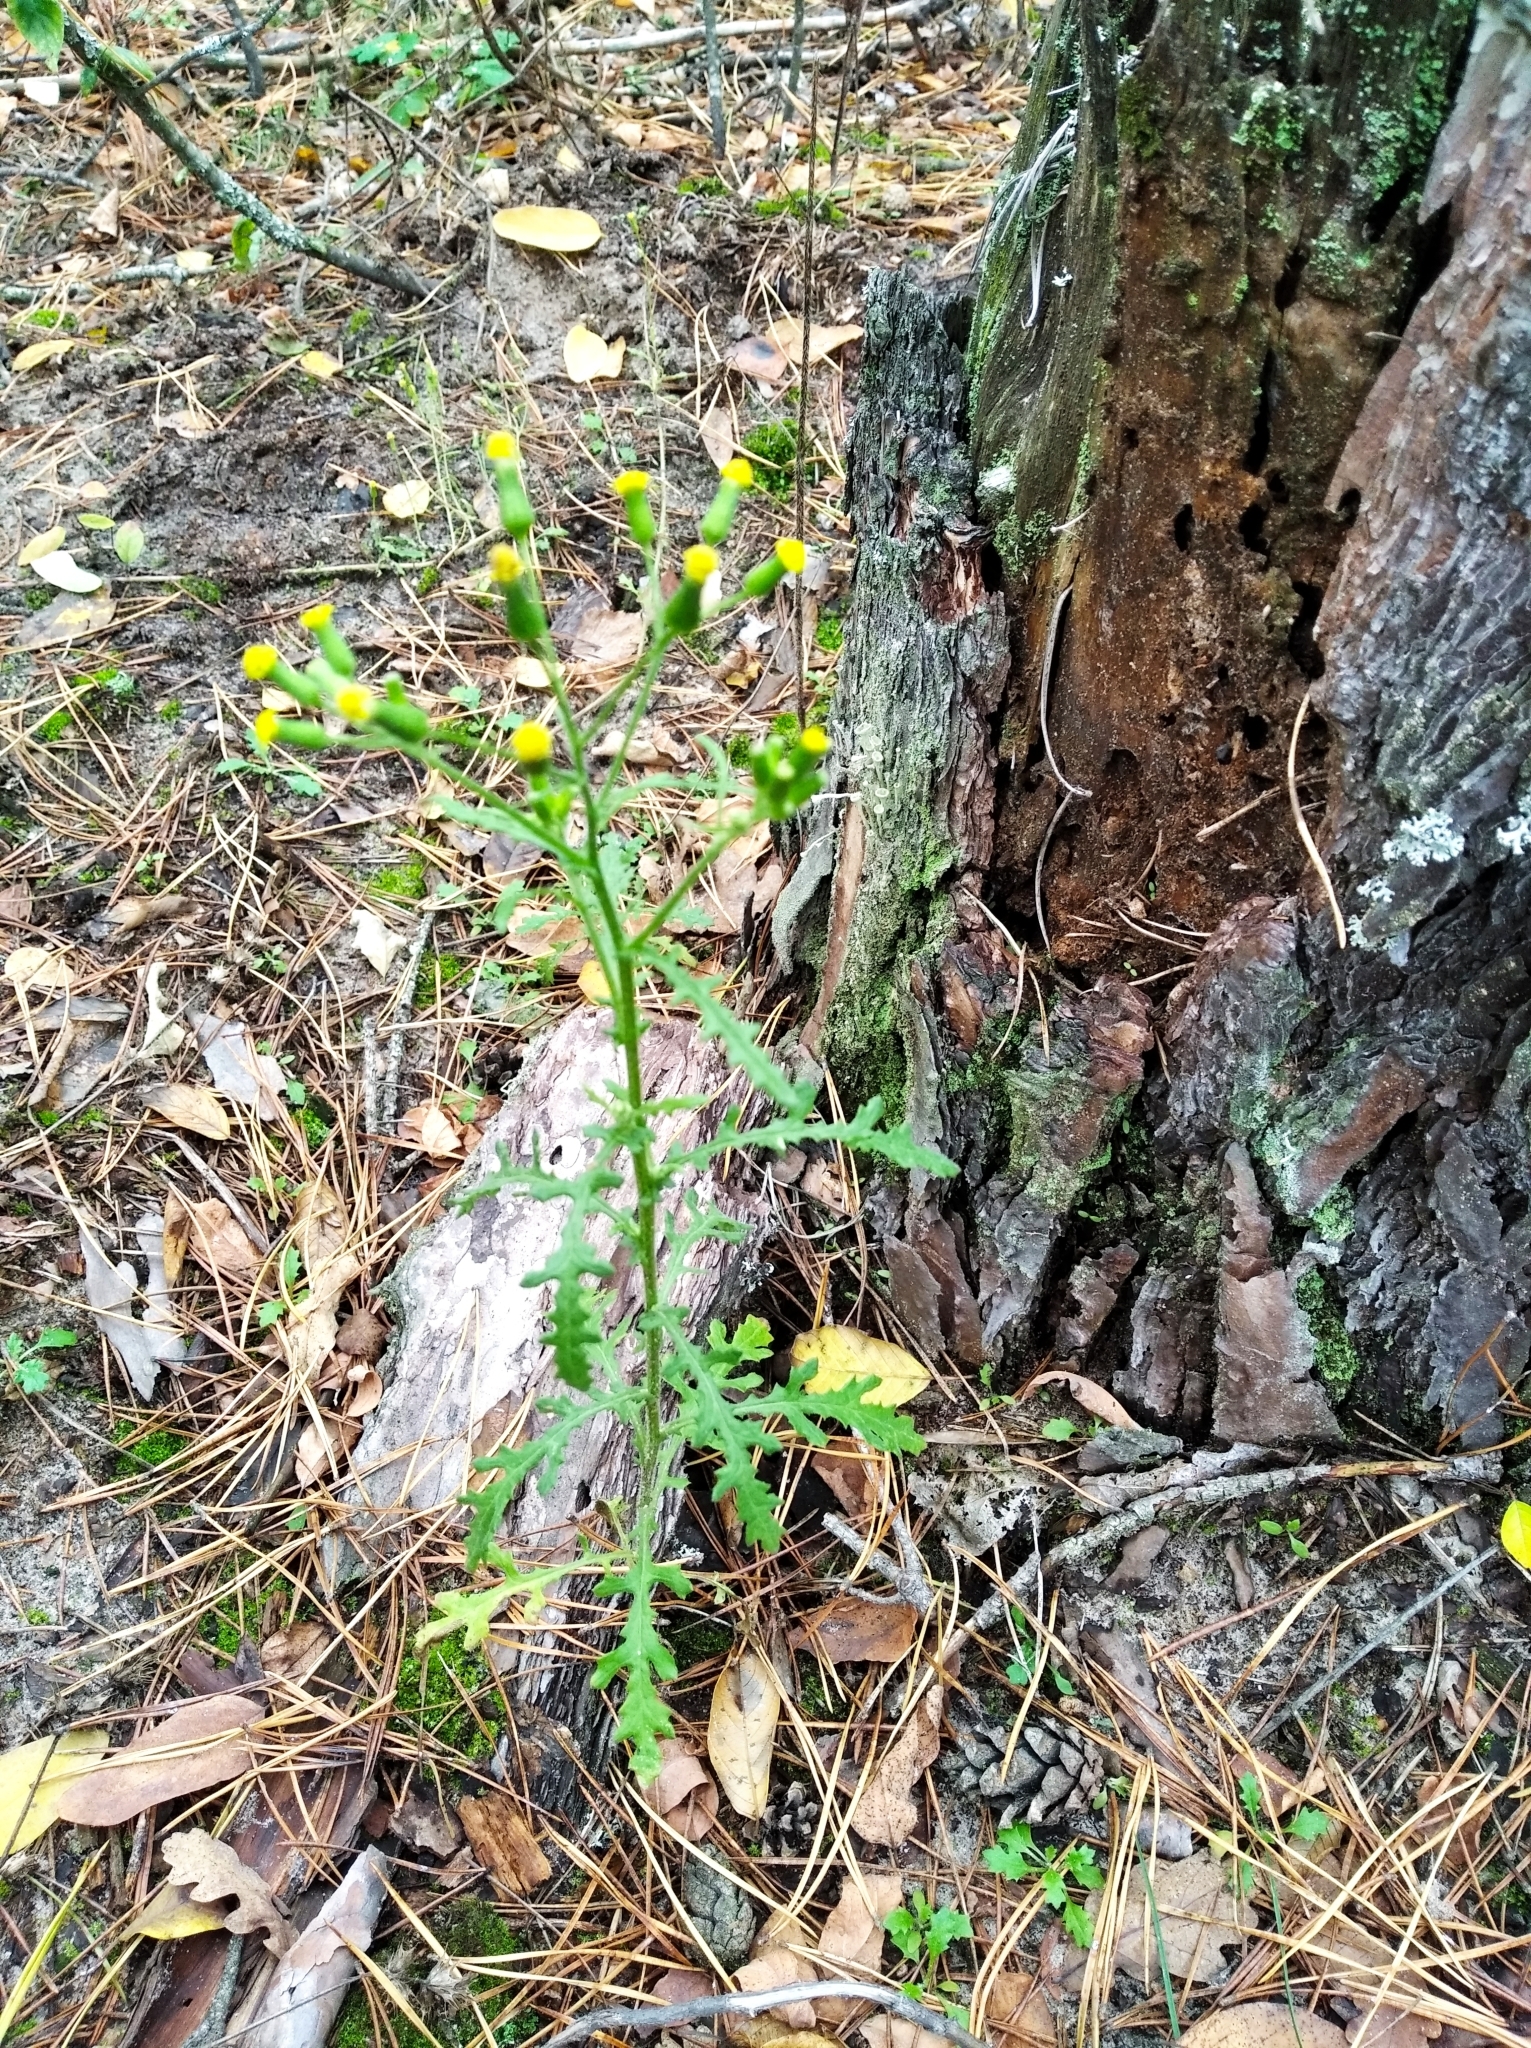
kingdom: Plantae
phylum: Tracheophyta
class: Magnoliopsida
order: Asterales
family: Asteraceae
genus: Senecio
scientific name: Senecio sylvaticus
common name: Woodland ragwort
